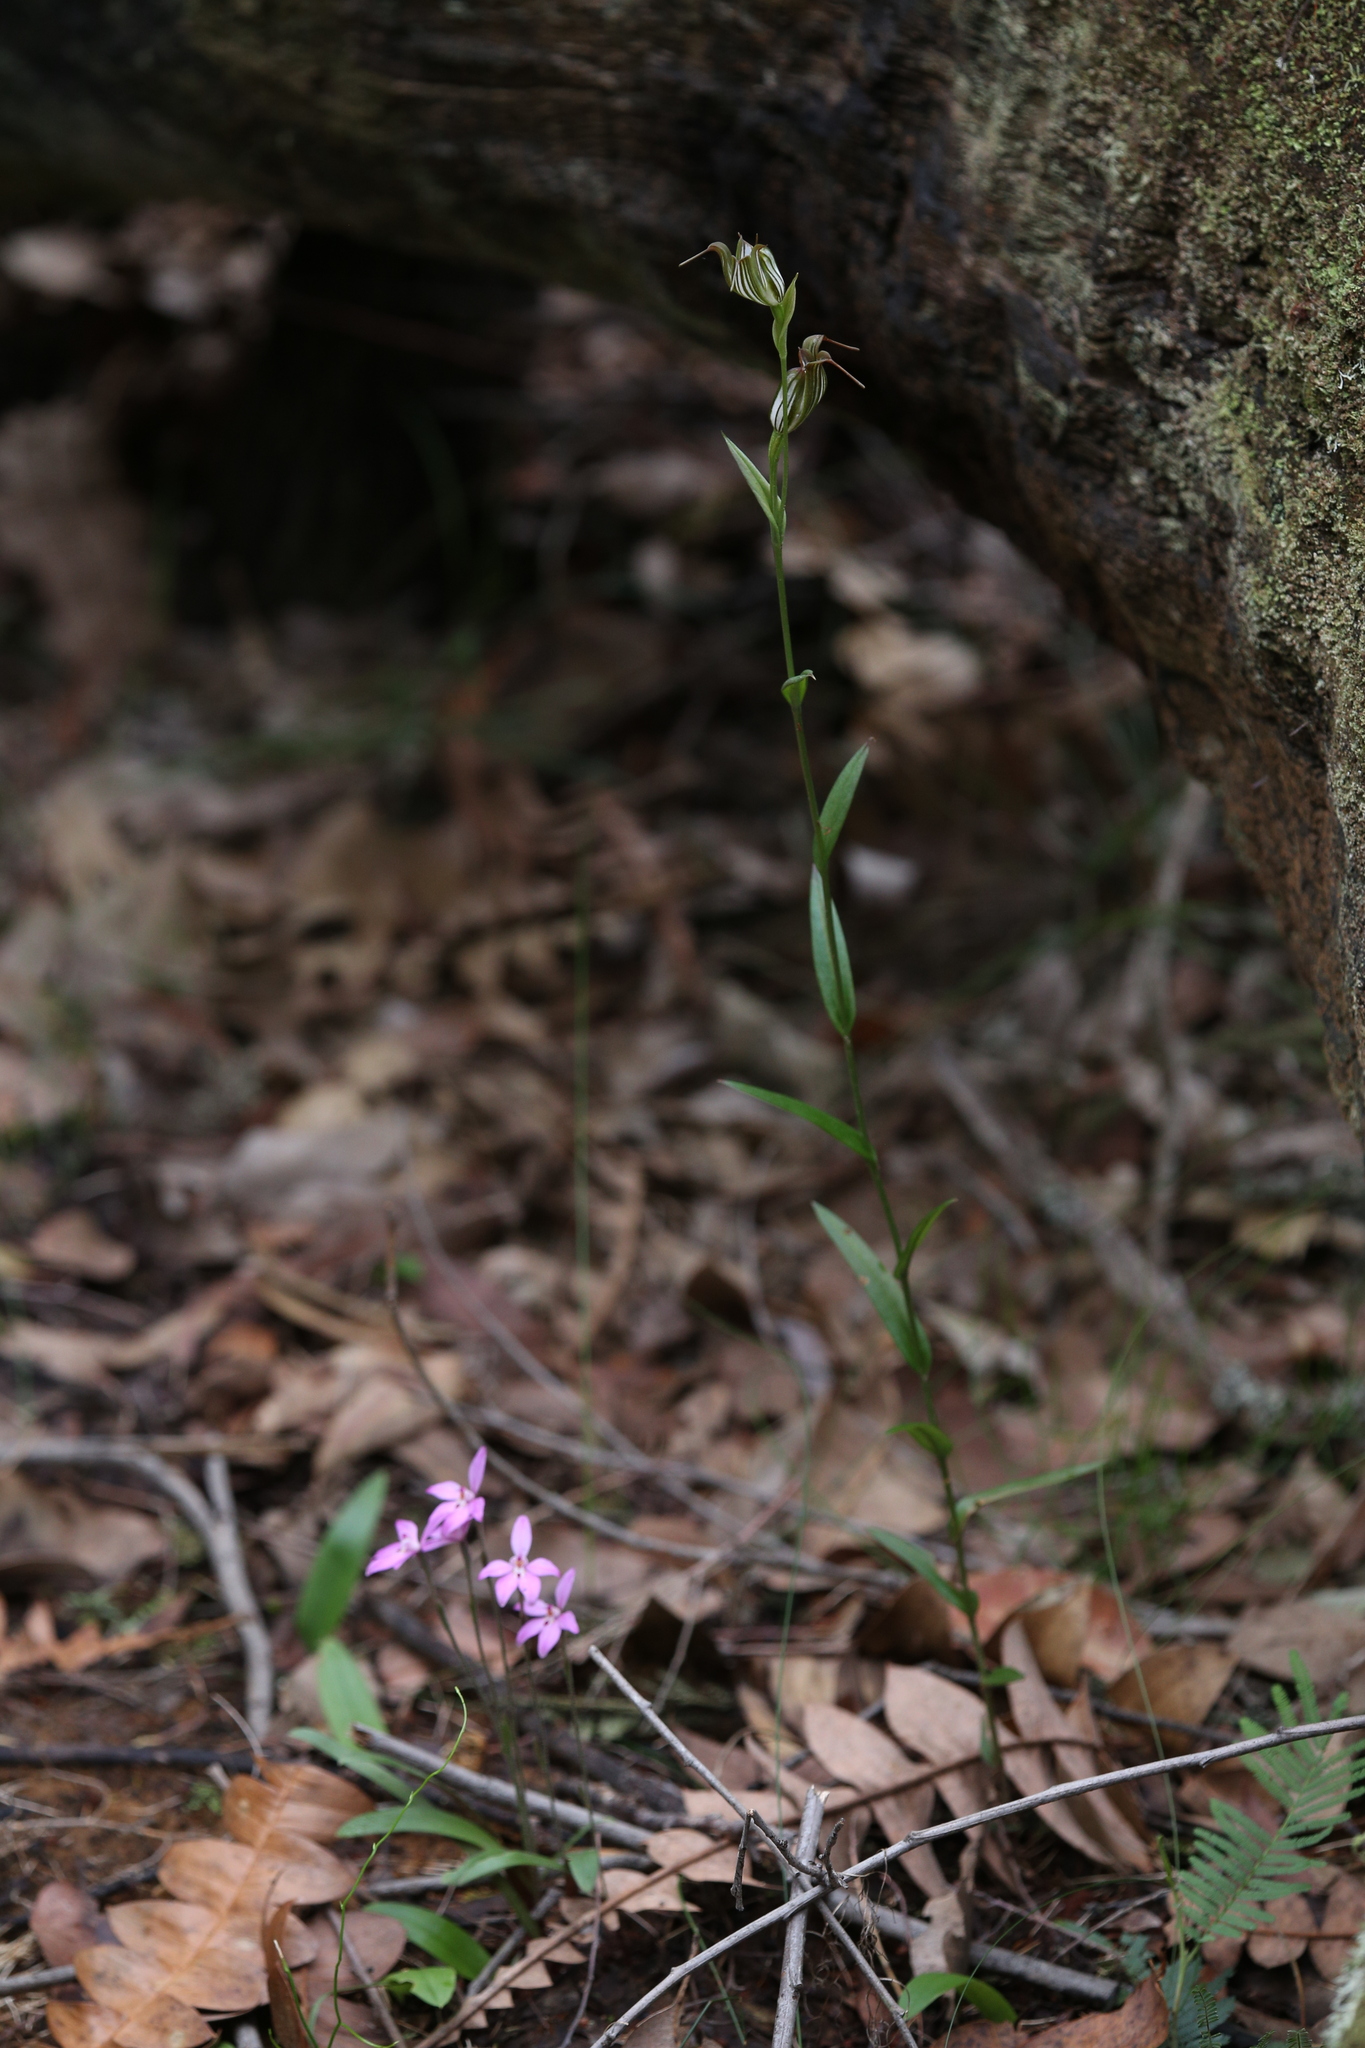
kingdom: Plantae
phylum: Tracheophyta
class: Liliopsida
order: Asparagales
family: Orchidaceae
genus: Pterostylis
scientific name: Pterostylis recurva
